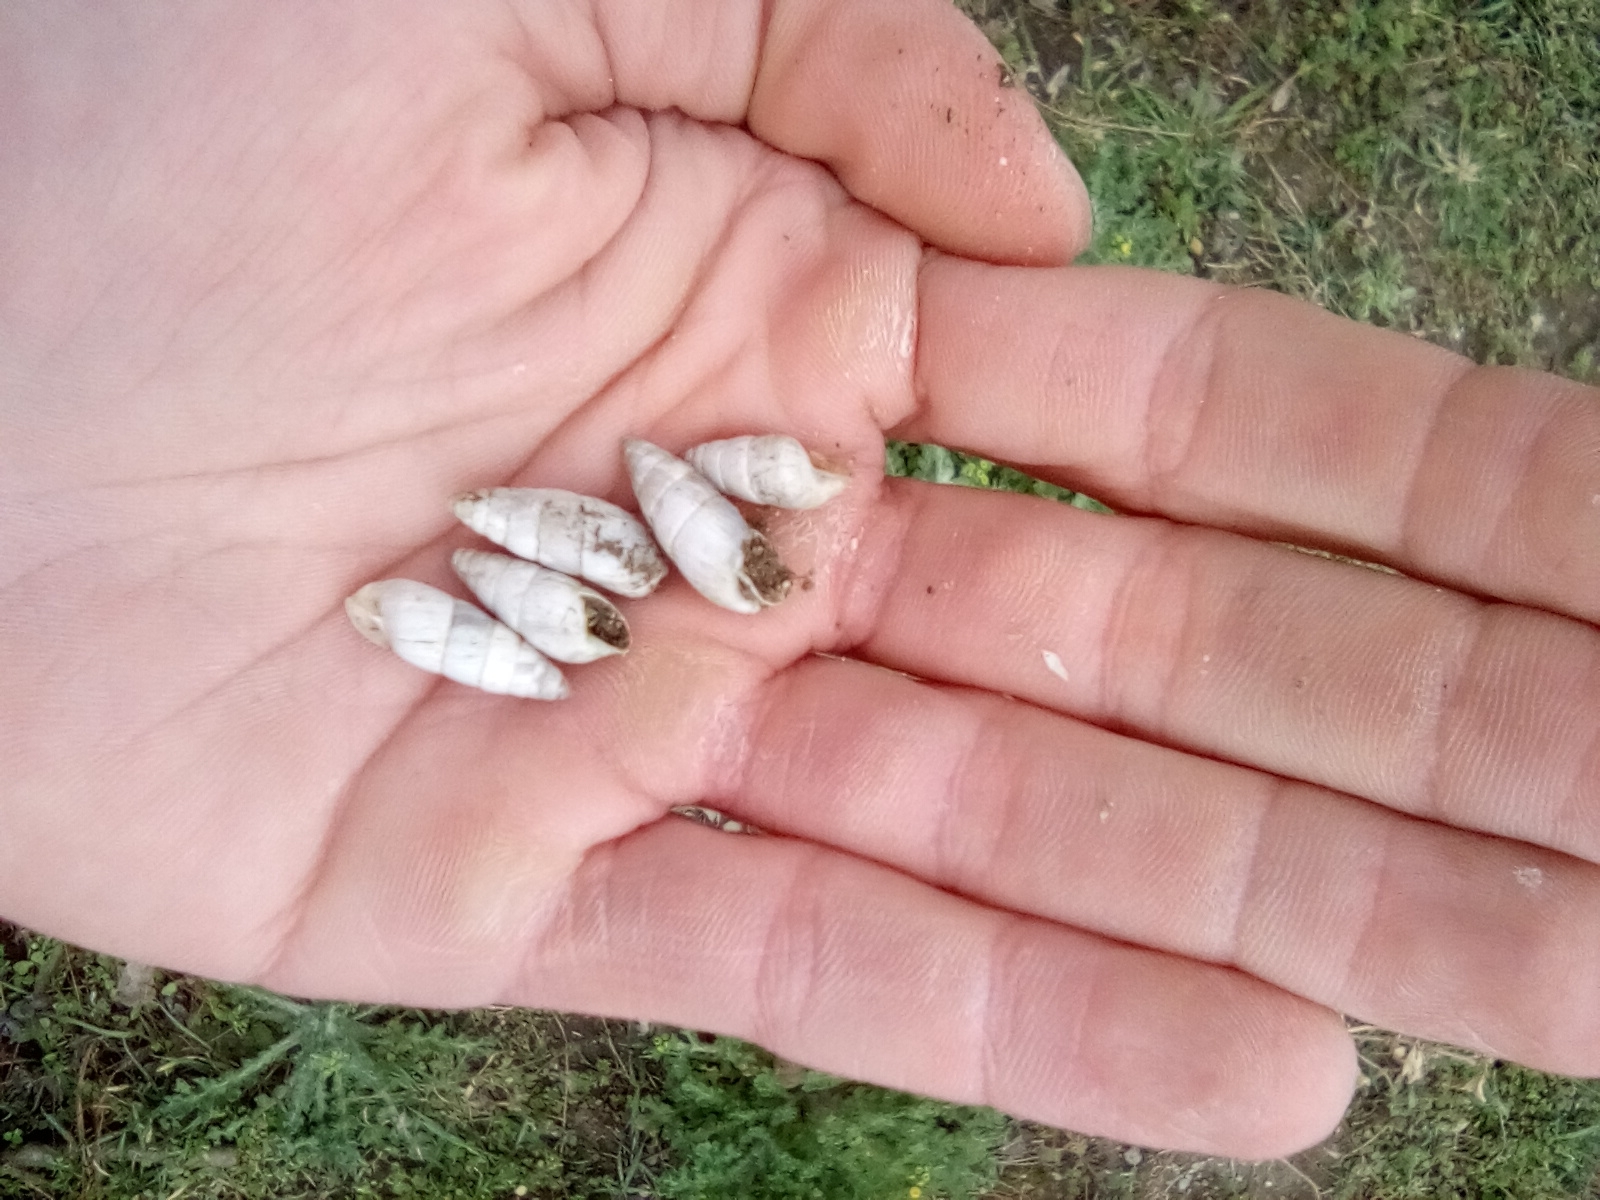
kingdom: Animalia
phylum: Mollusca
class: Gastropoda
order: Stylommatophora
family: Enidae
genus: Brephulopsis
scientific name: Brephulopsis cylindrica
